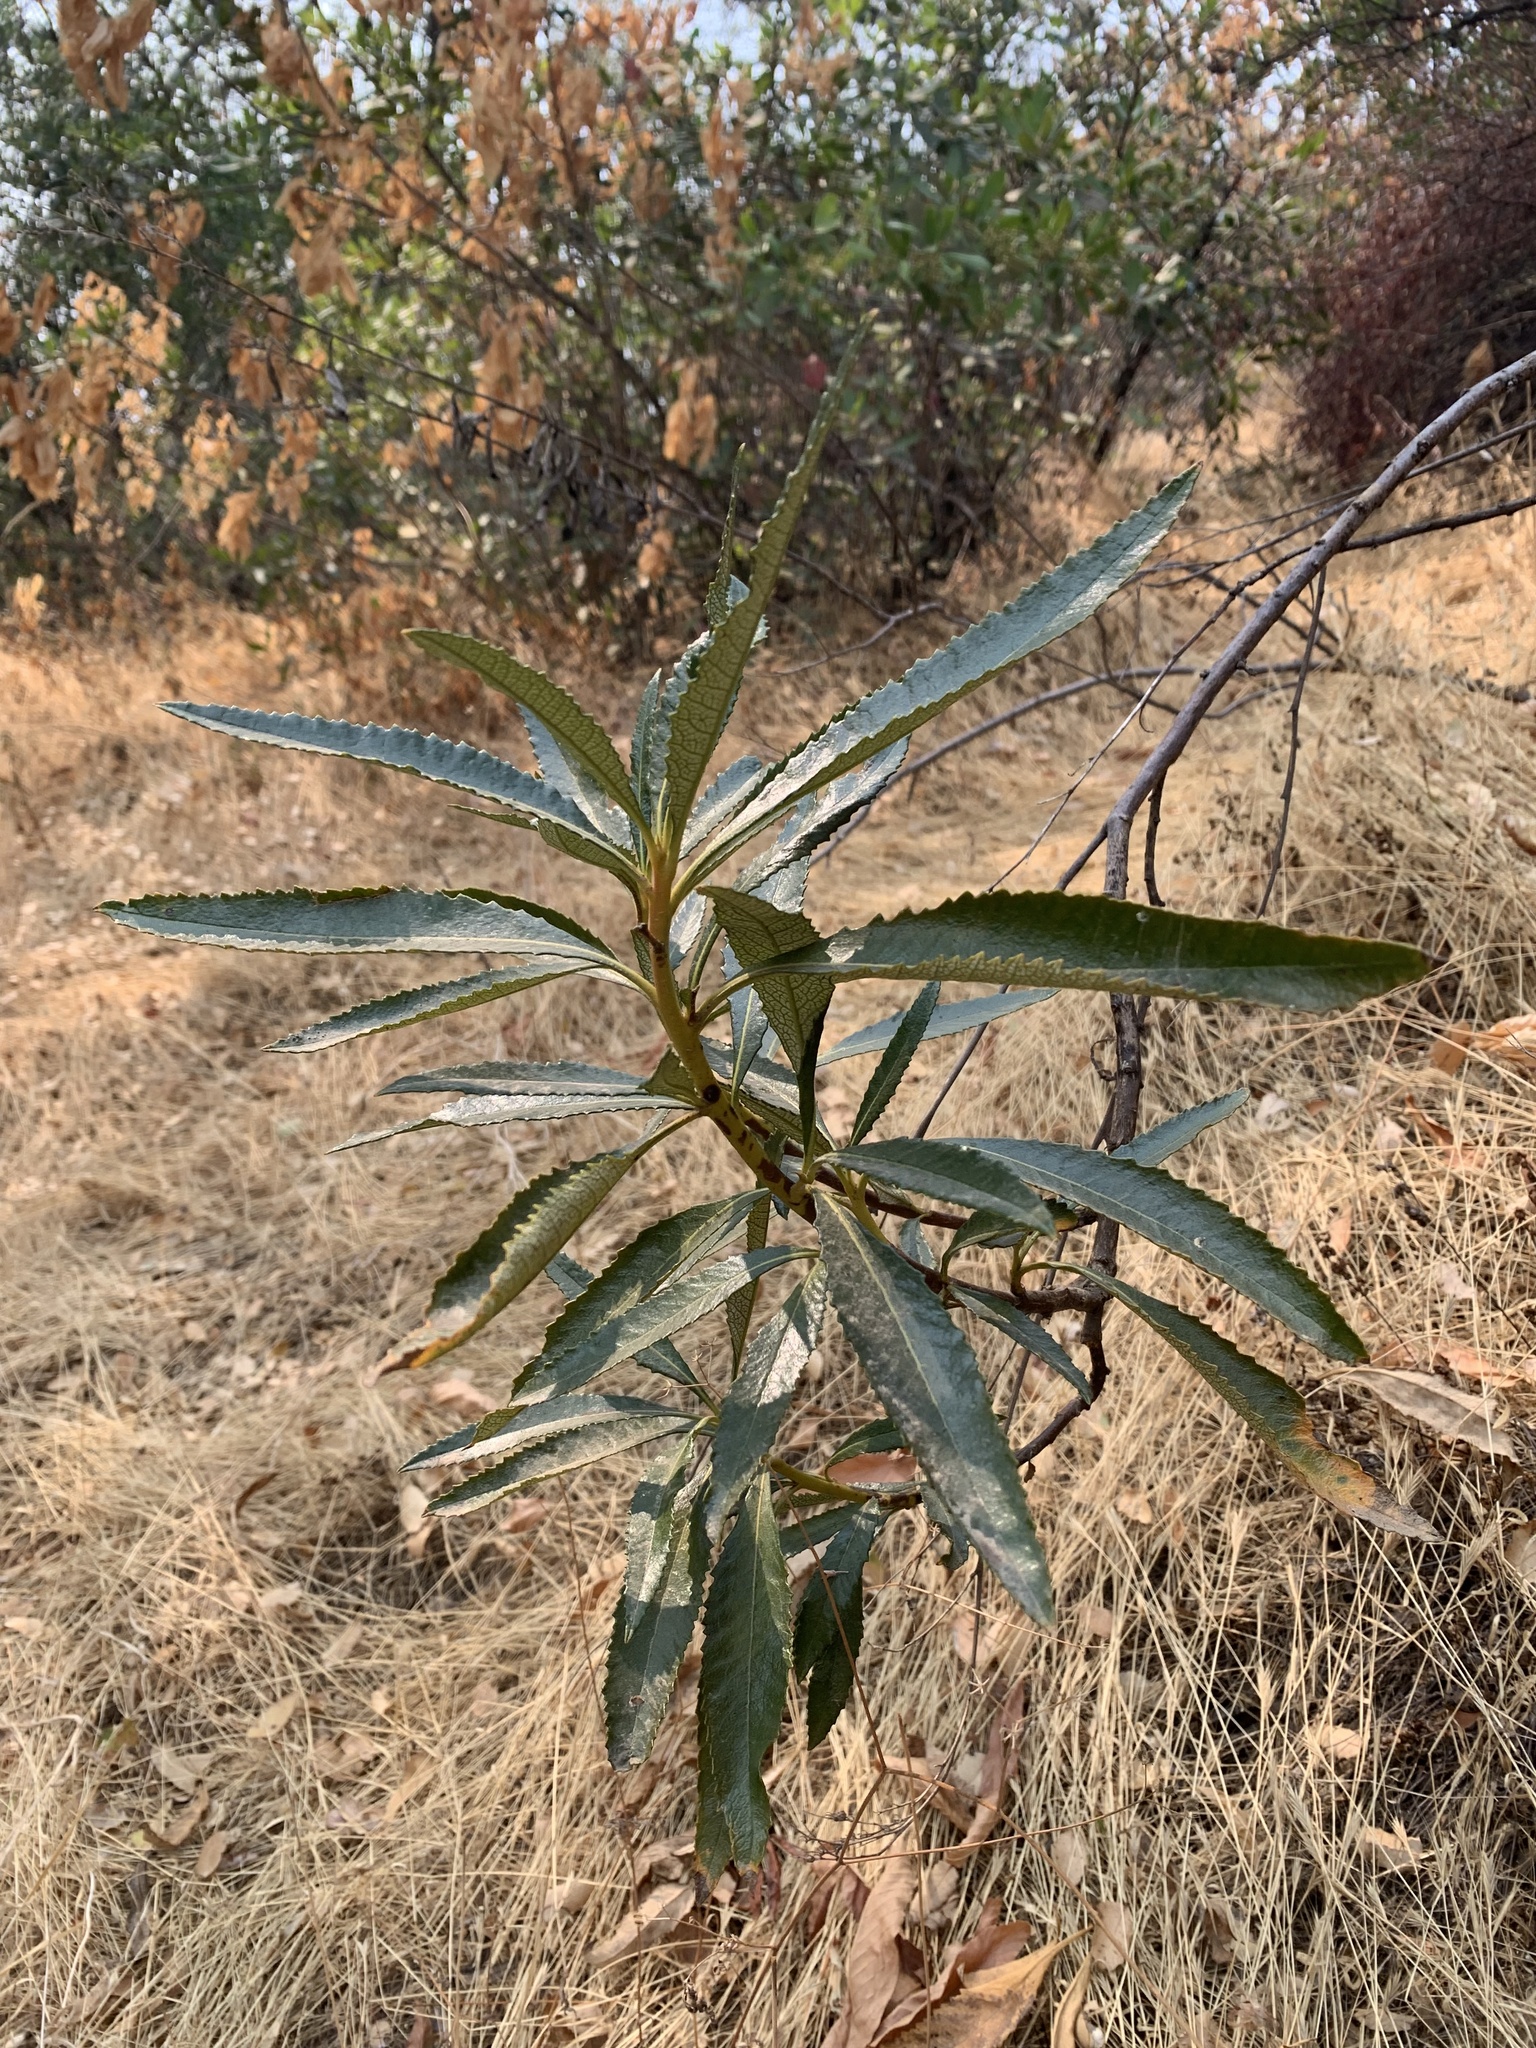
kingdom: Plantae
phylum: Tracheophyta
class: Magnoliopsida
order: Boraginales
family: Namaceae
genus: Eriodictyon
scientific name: Eriodictyon californicum
